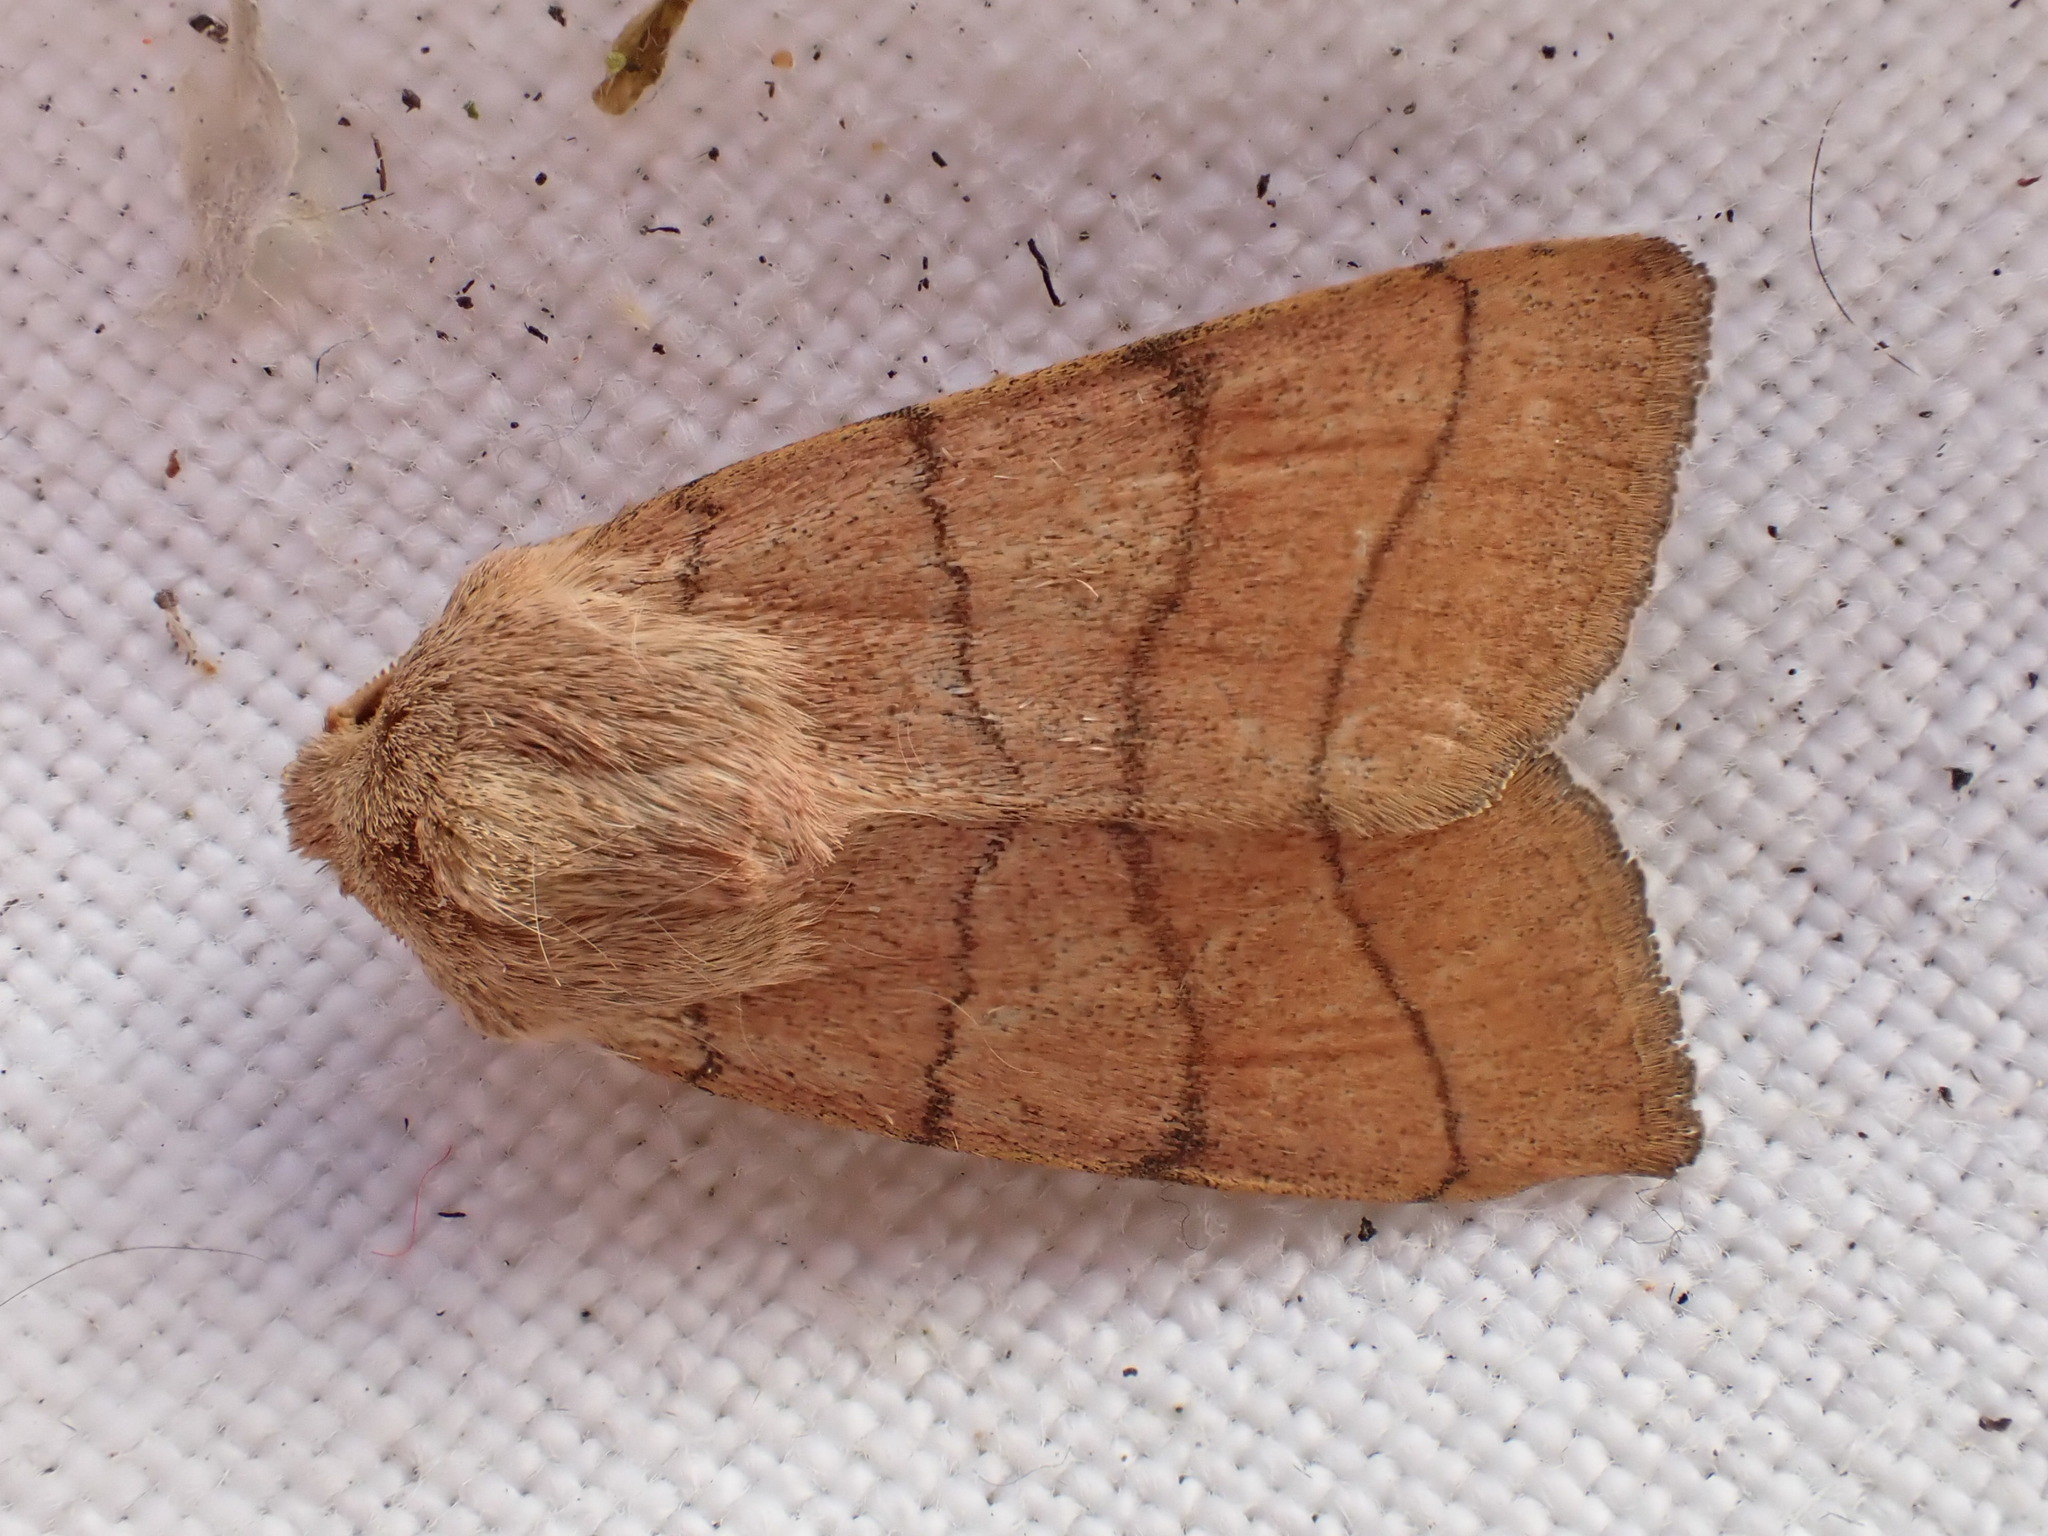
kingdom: Animalia
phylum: Arthropoda
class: Insecta
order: Lepidoptera
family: Noctuidae
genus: Charanyca
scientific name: Charanyca trigrammica
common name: Treble lines
